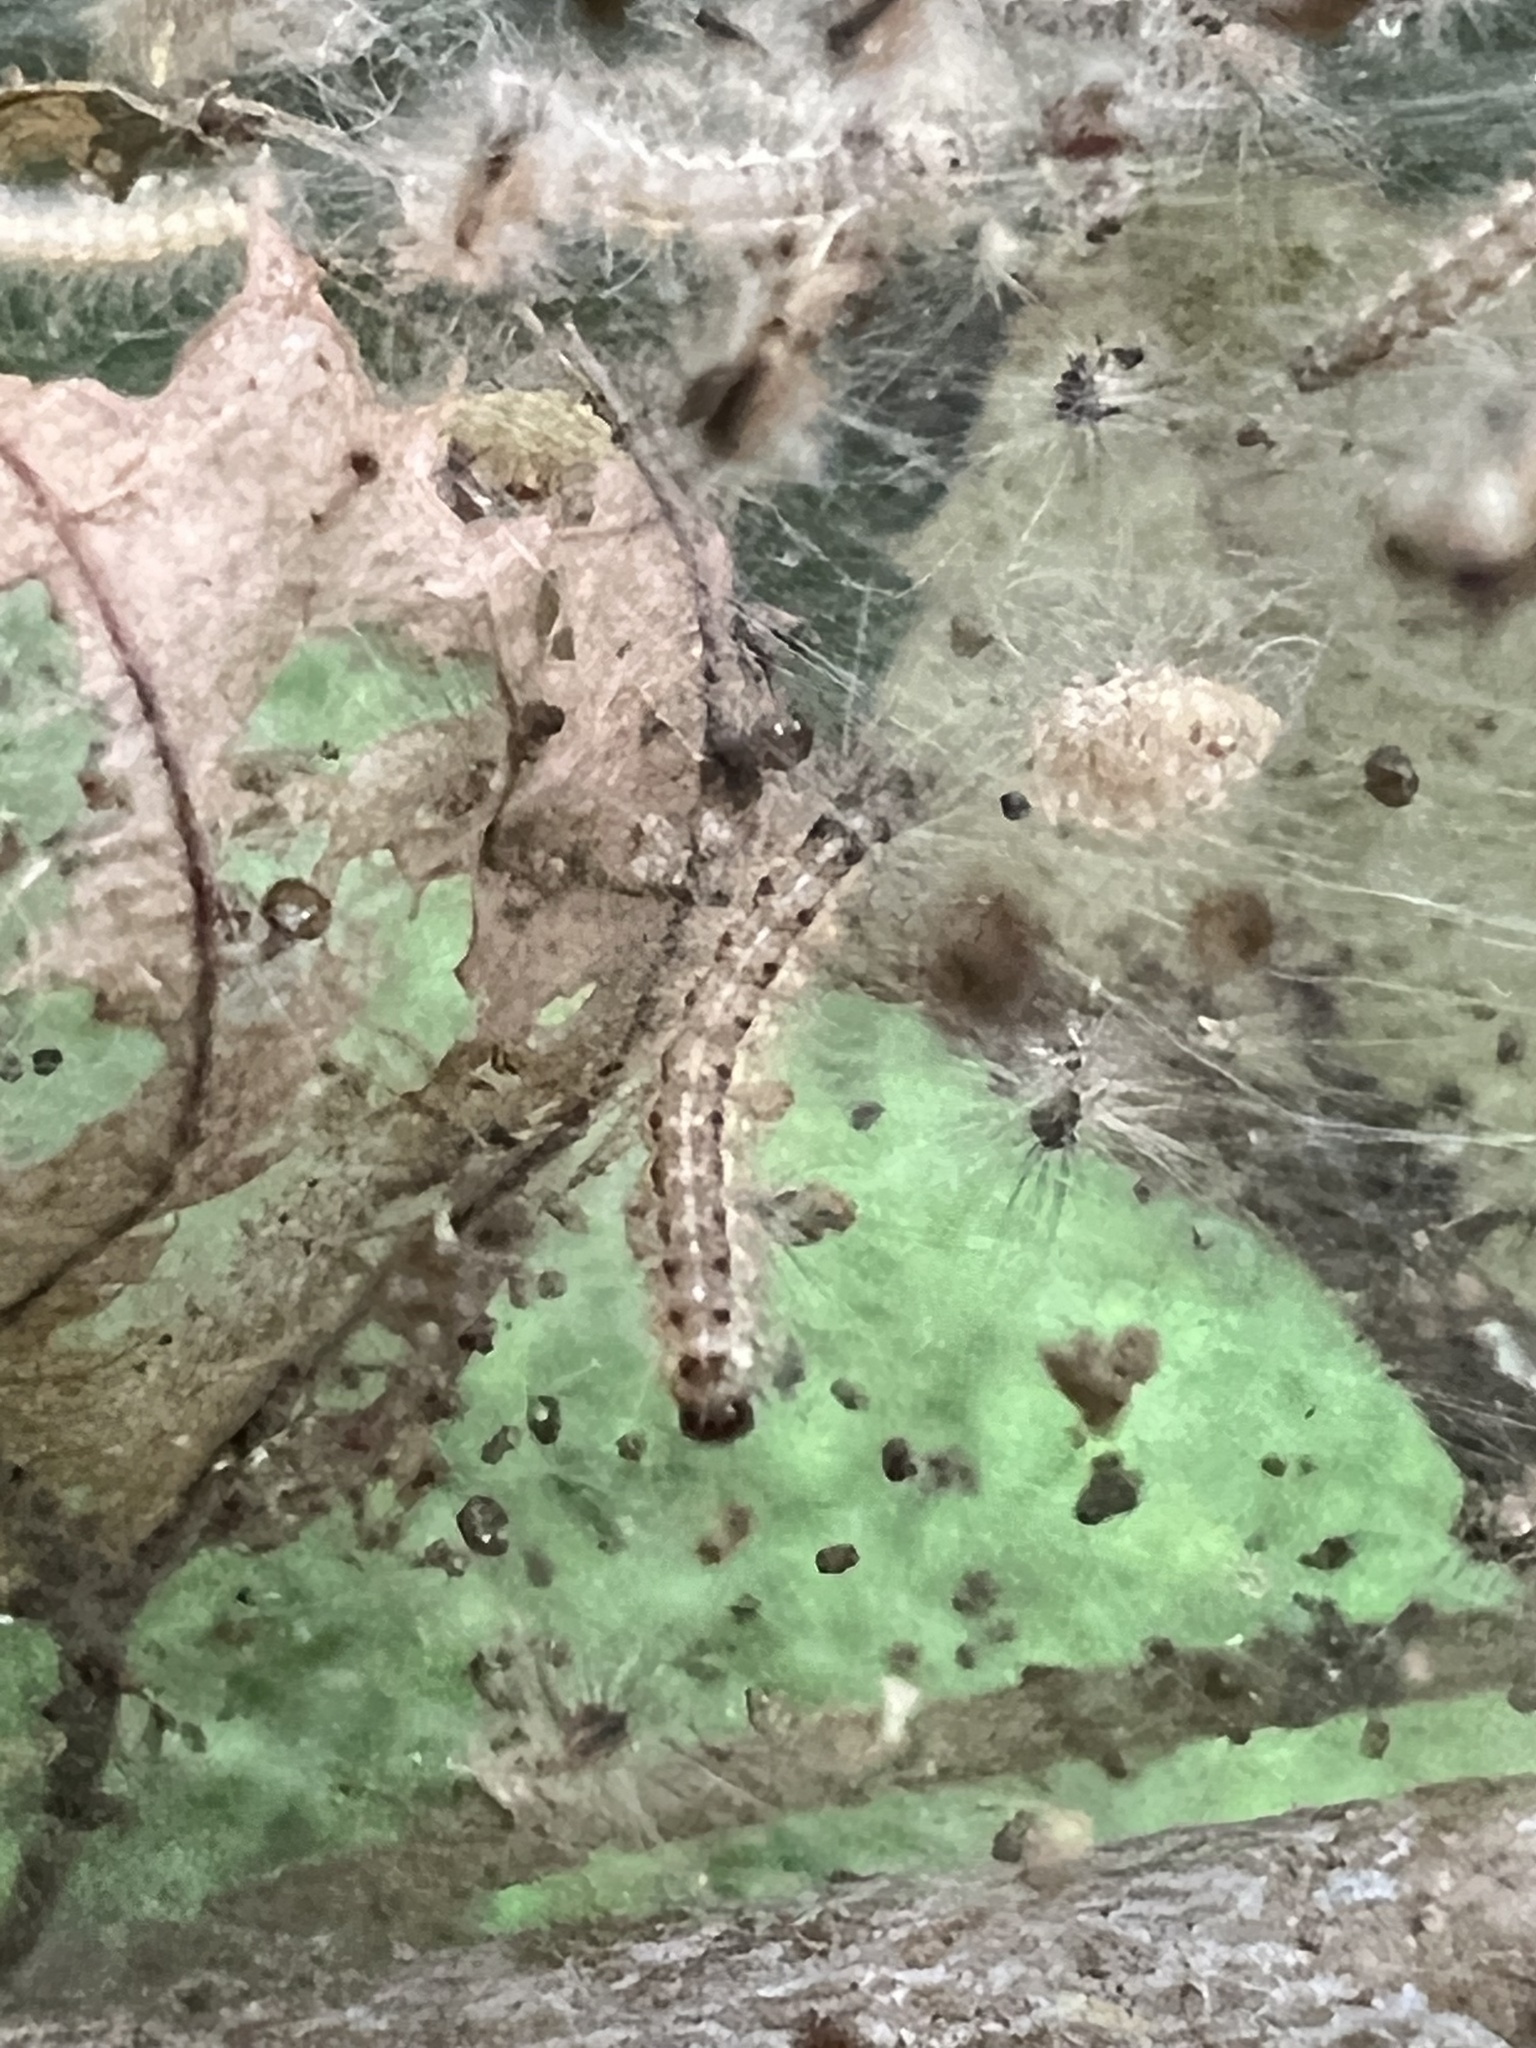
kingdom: Animalia
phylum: Arthropoda
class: Insecta
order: Lepidoptera
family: Erebidae
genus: Hyphantria
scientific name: Hyphantria cunea
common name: American white moth
